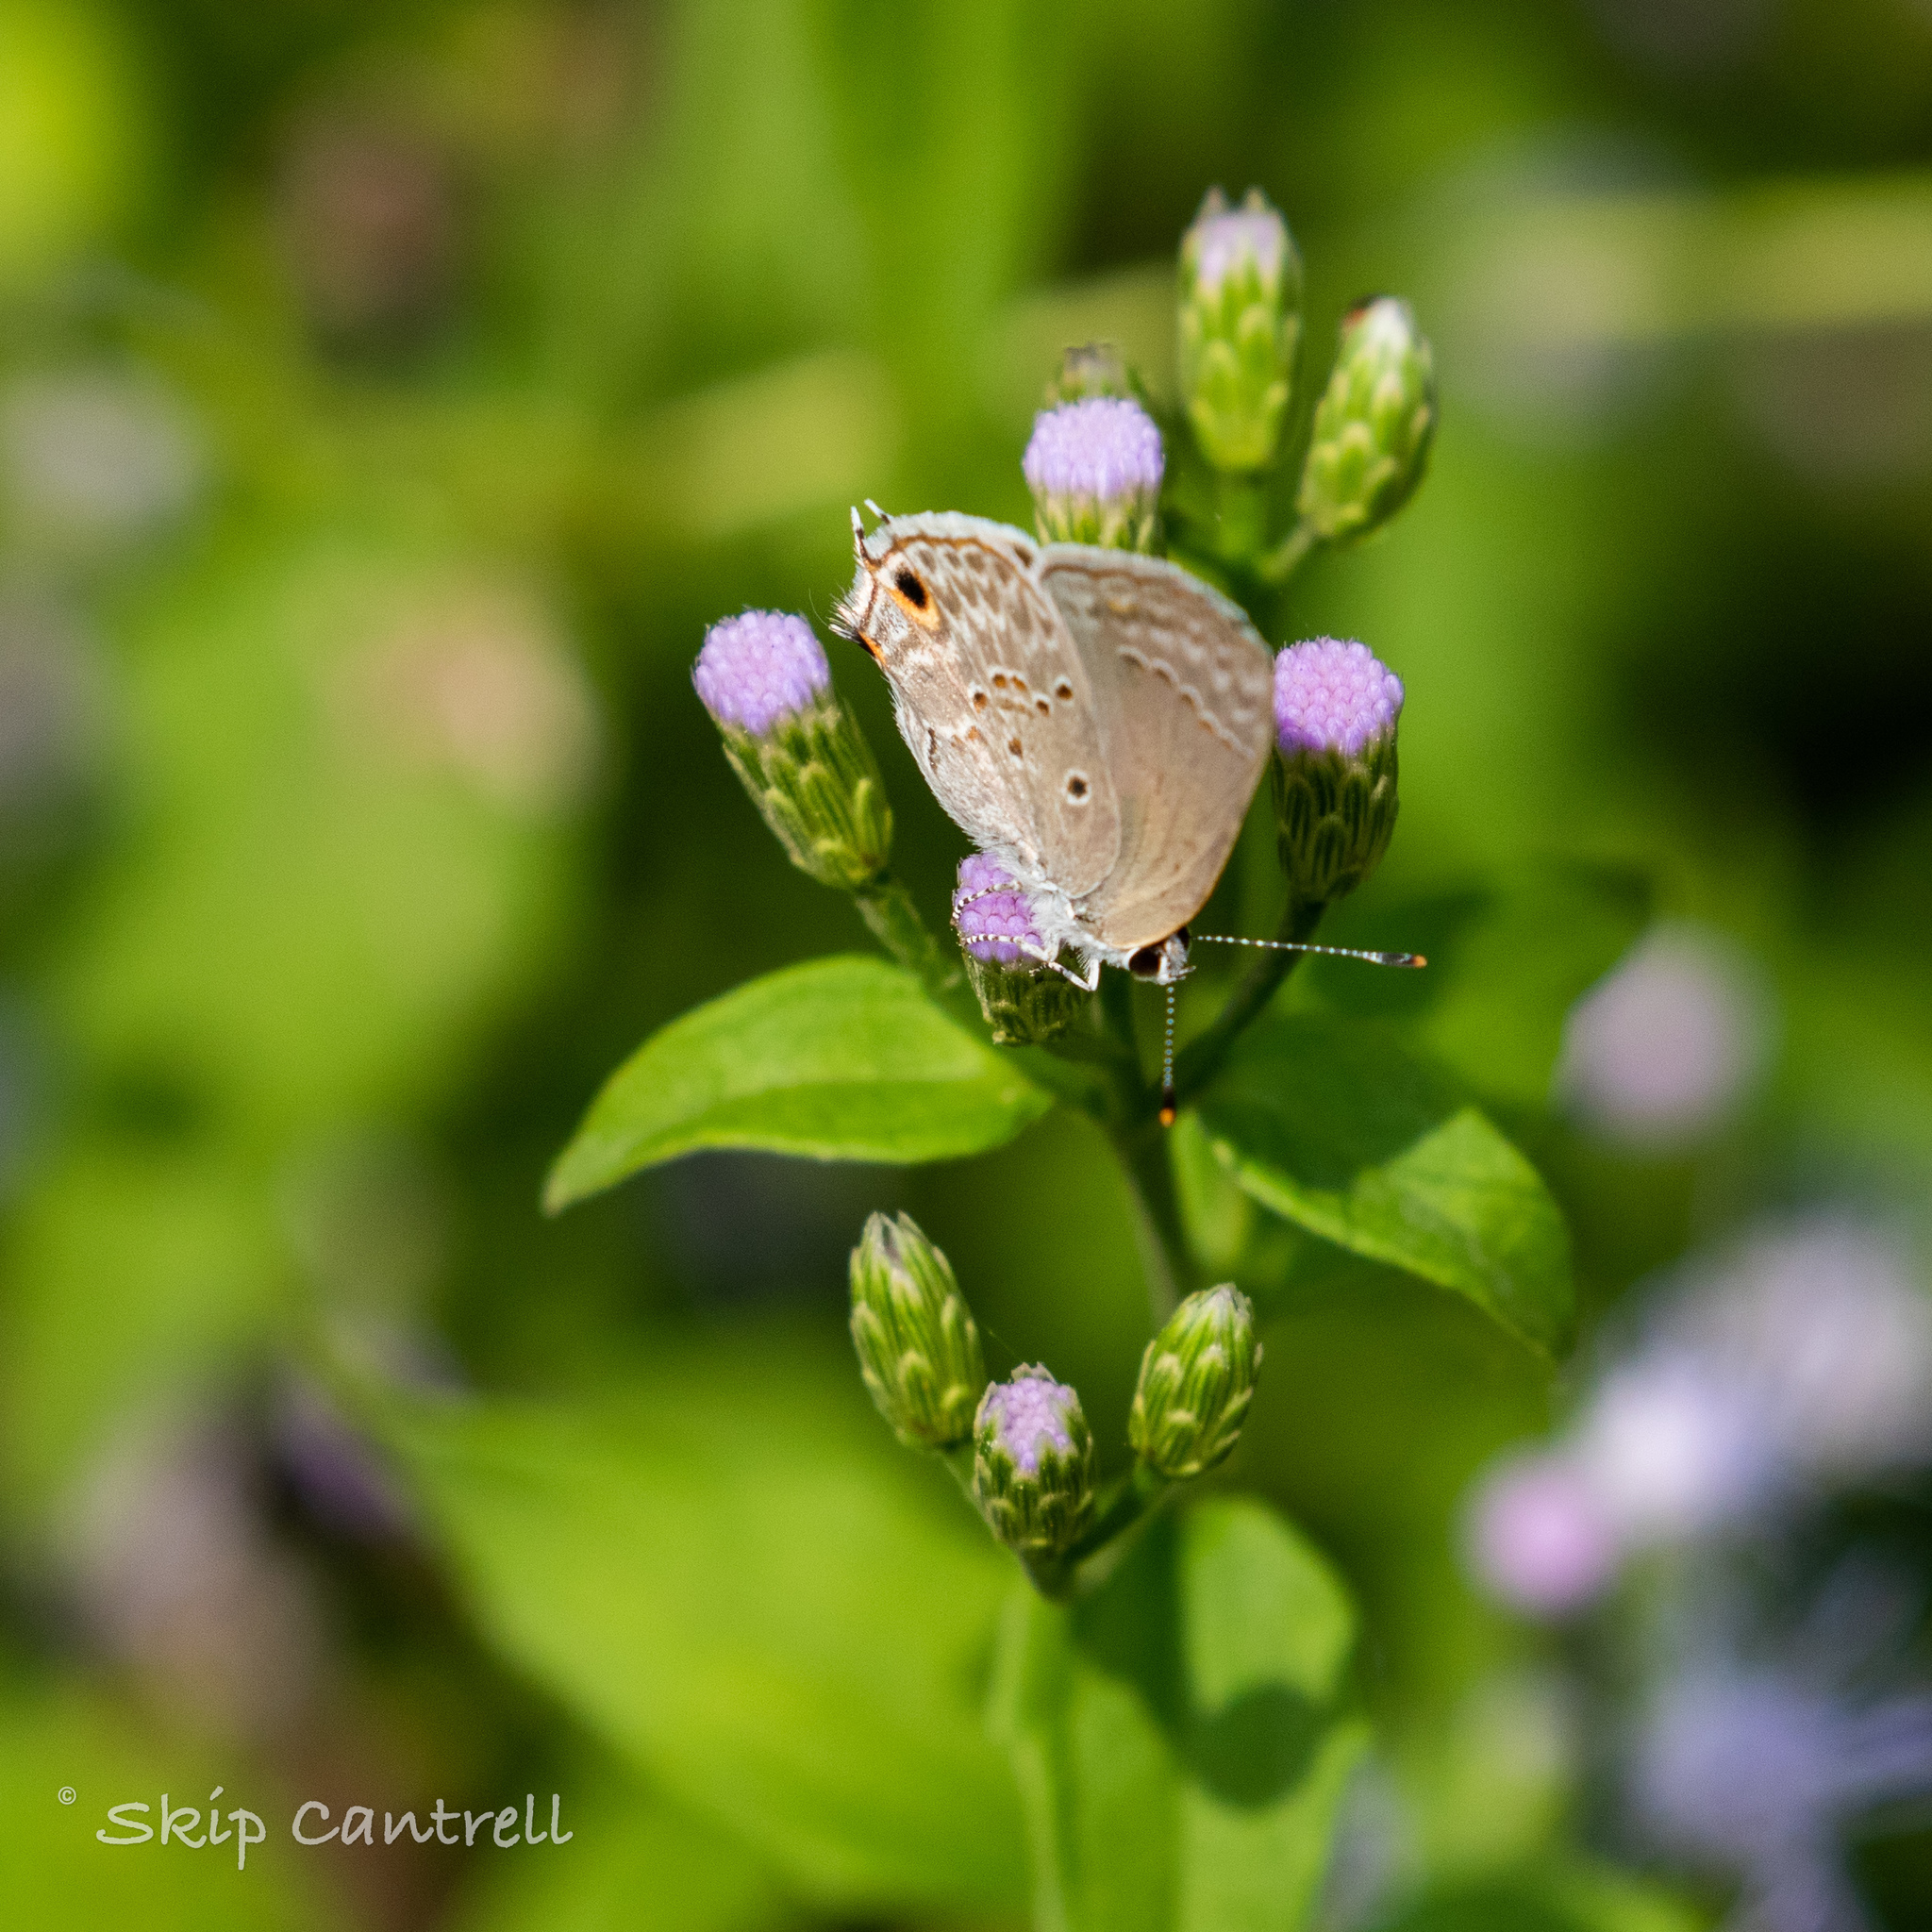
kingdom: Animalia
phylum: Arthropoda
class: Insecta
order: Lepidoptera
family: Lycaenidae
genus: Callicista
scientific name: Callicista columella
